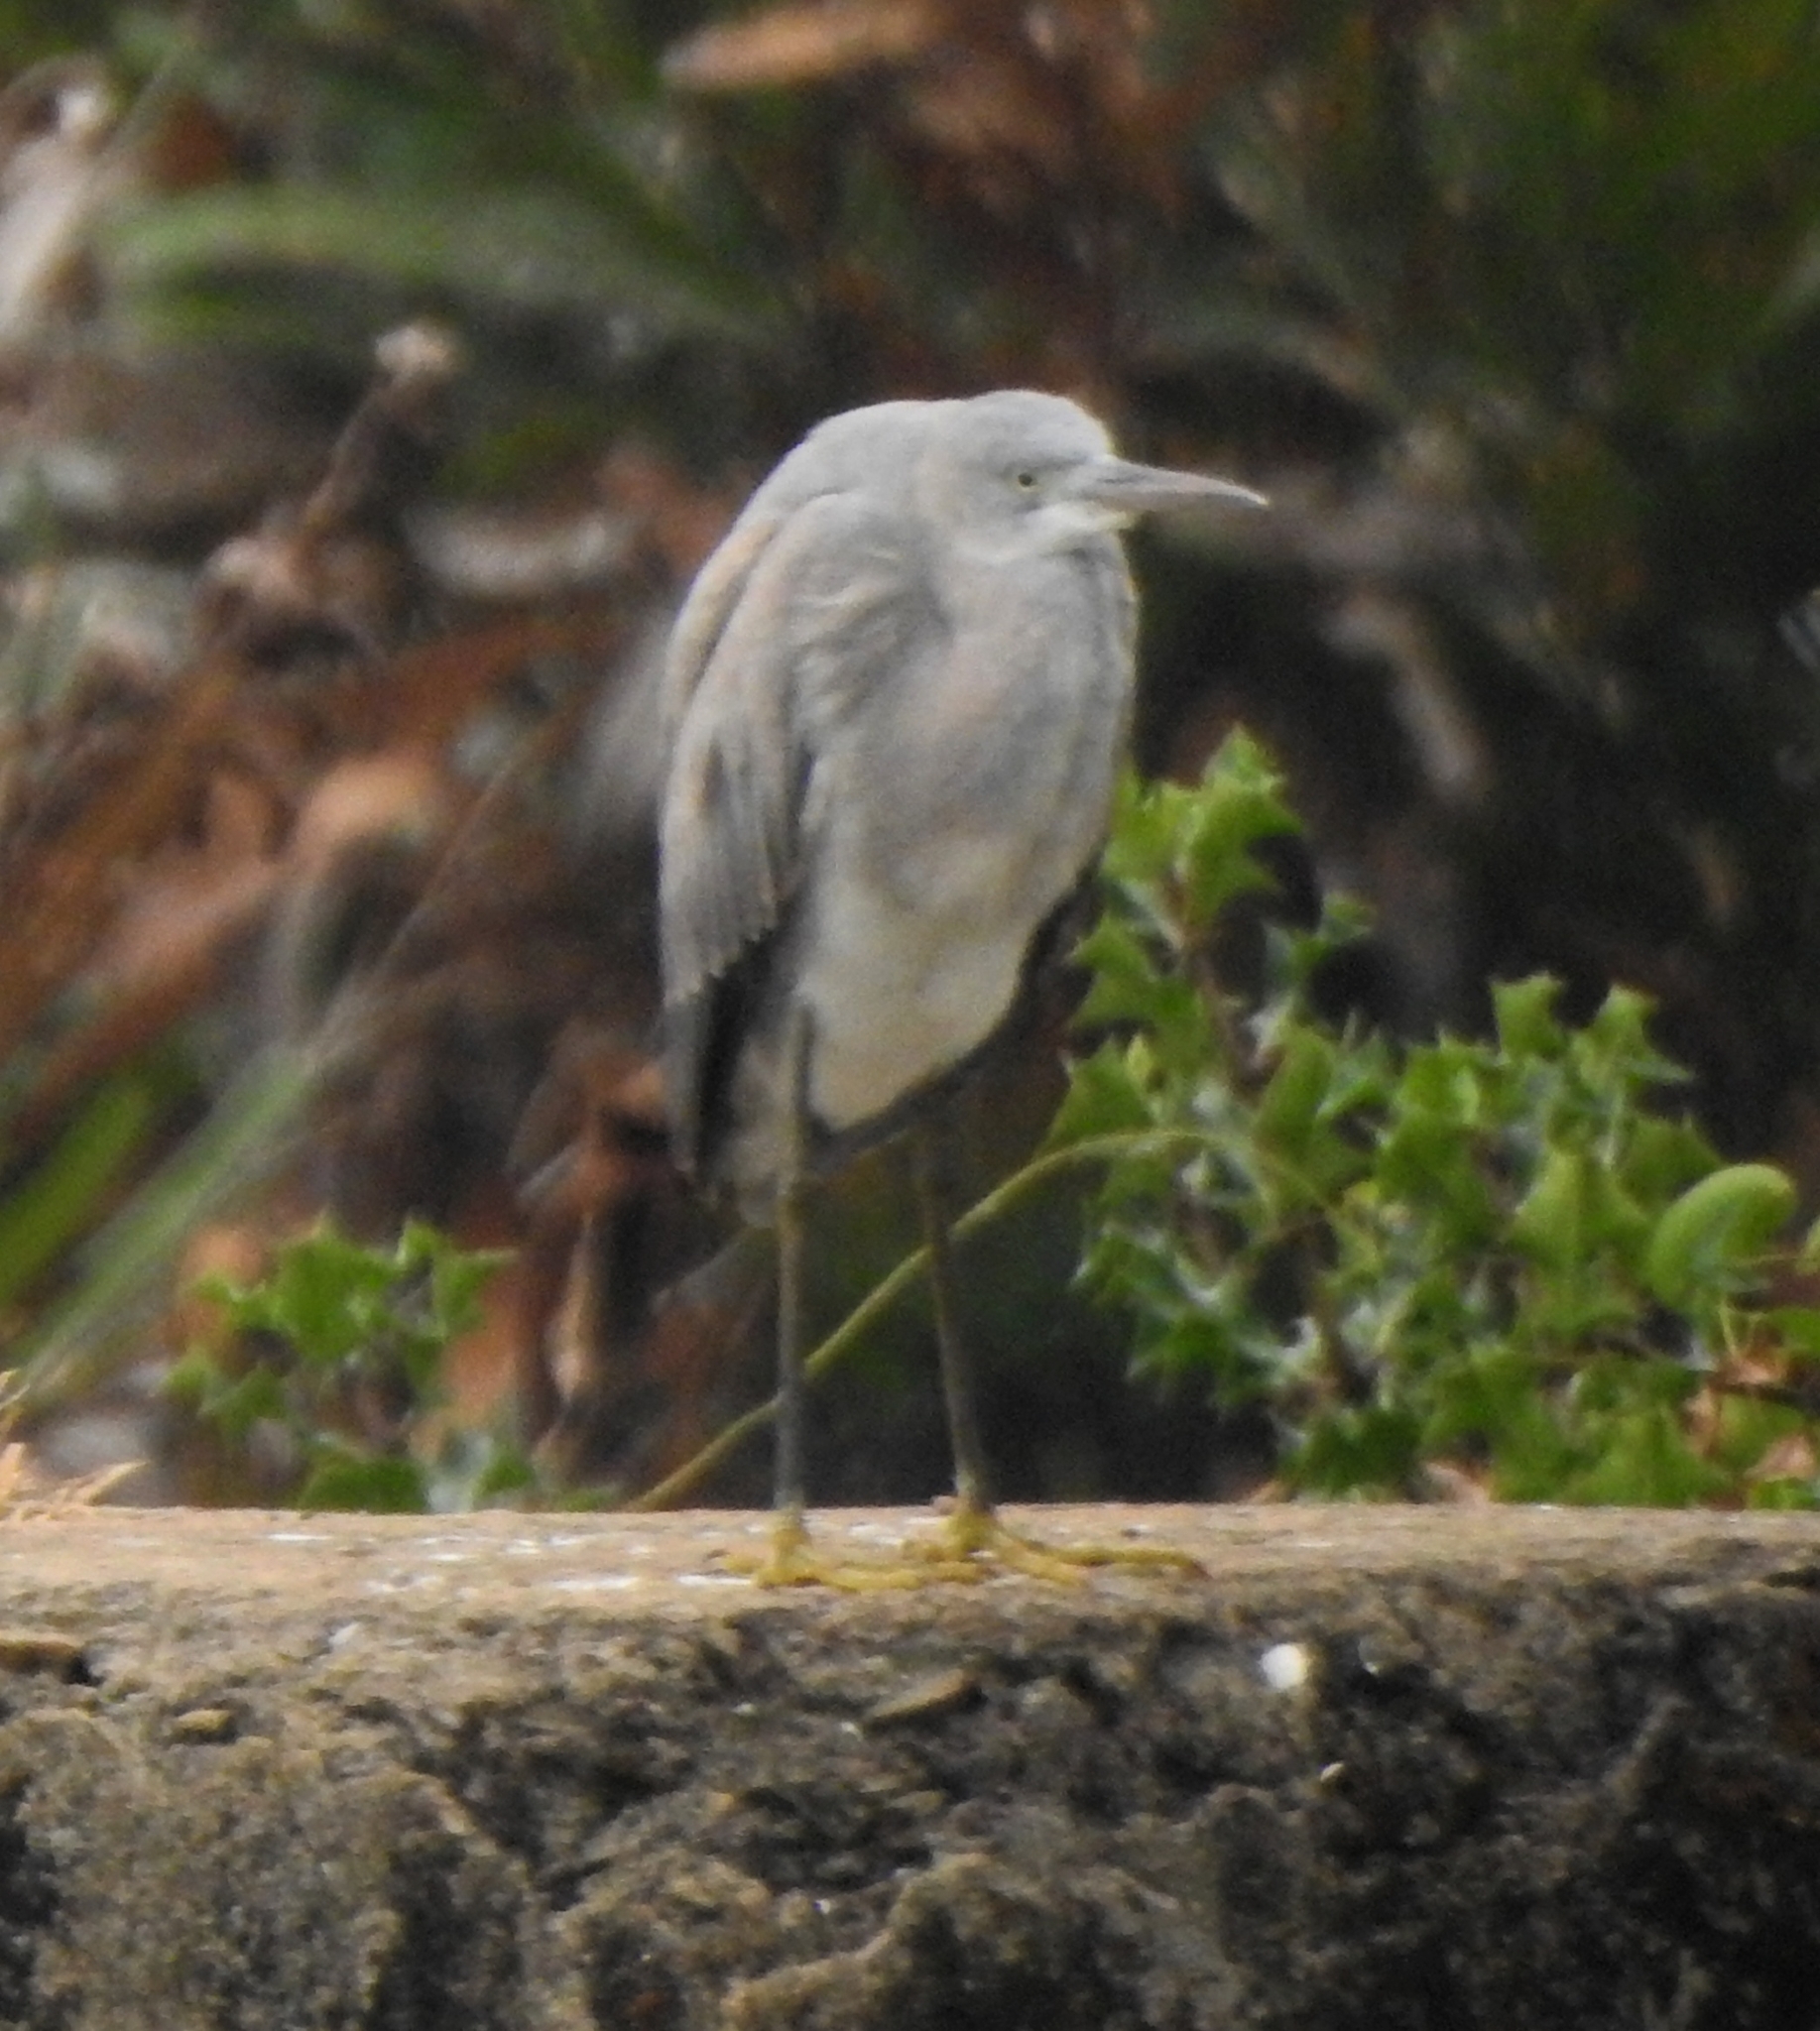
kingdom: Animalia
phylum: Chordata
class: Aves
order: Pelecaniformes
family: Ardeidae
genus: Egretta
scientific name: Egretta gularis
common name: Western reef-heron
